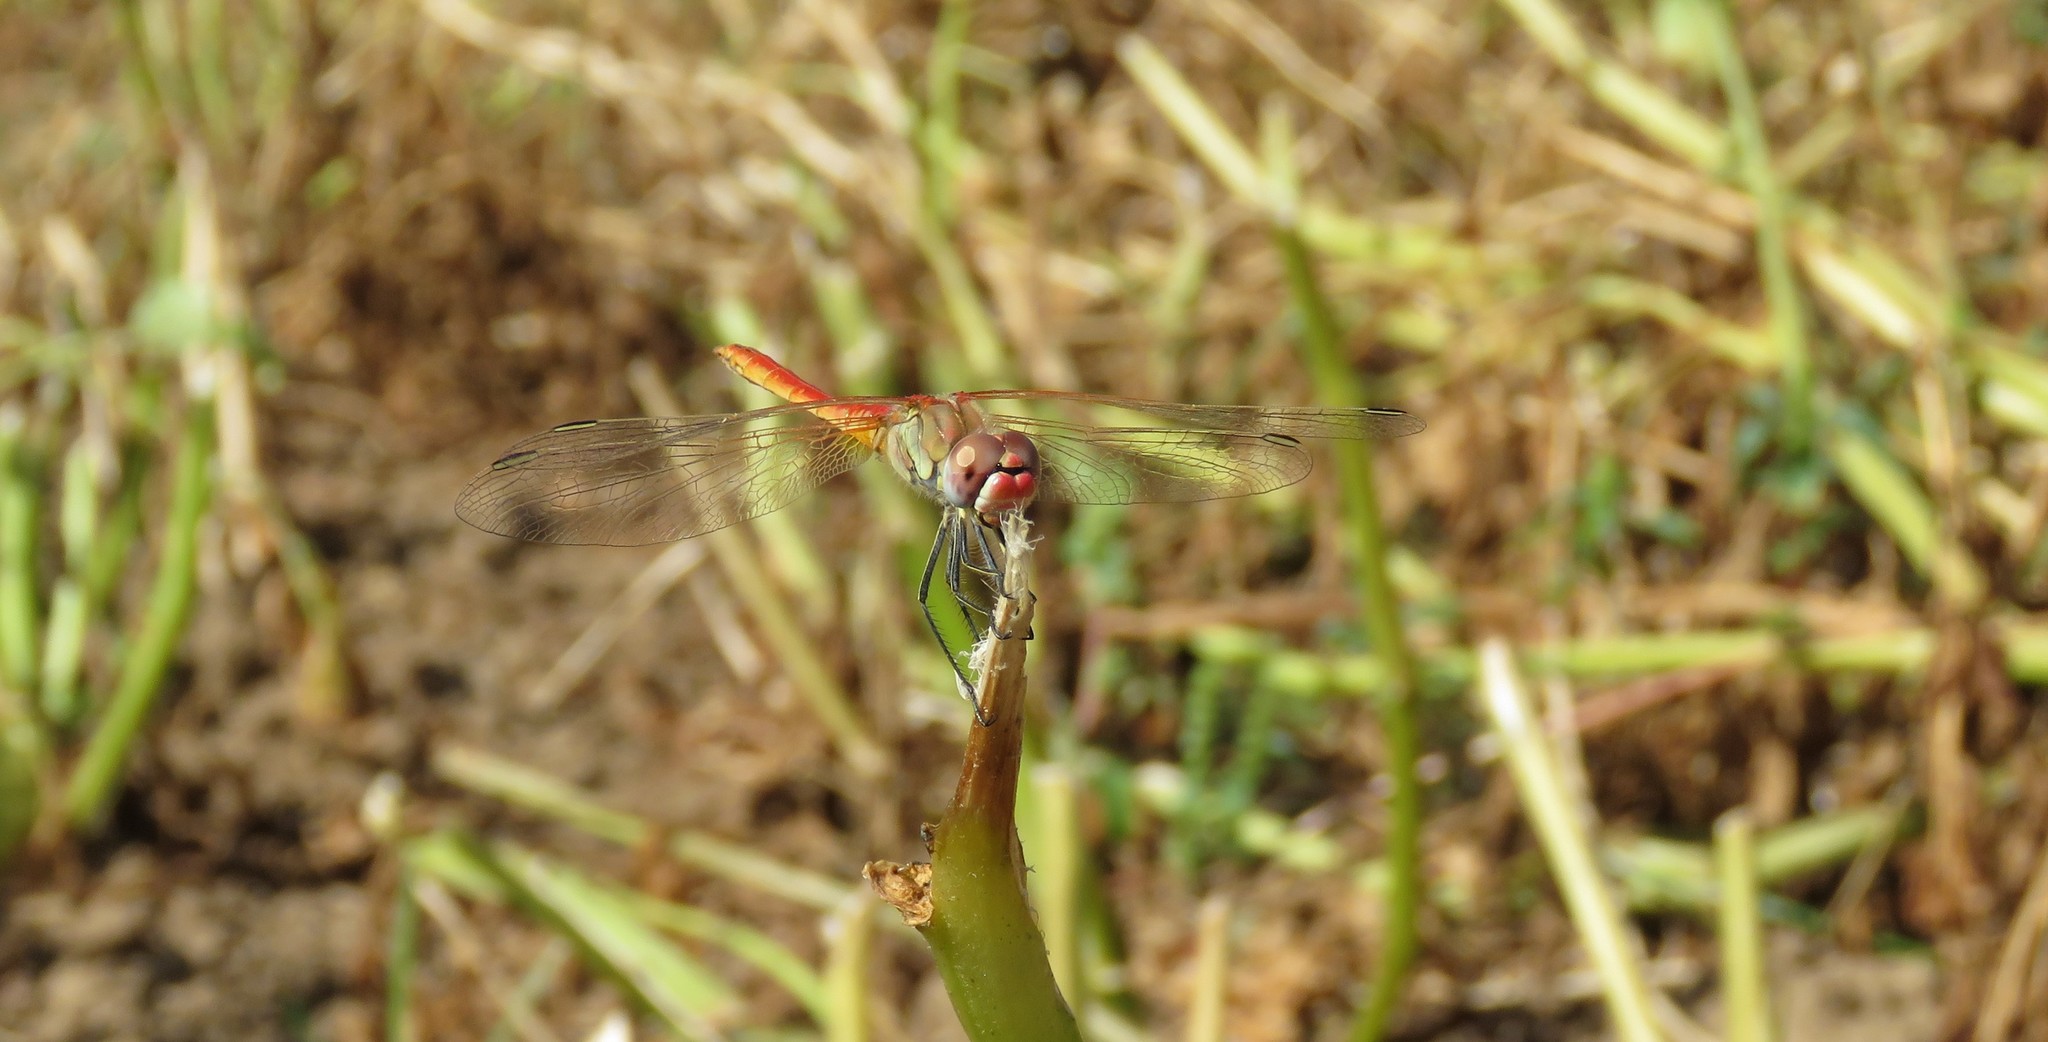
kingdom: Animalia
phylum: Arthropoda
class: Insecta
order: Odonata
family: Libellulidae
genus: Sympetrum
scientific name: Sympetrum fonscolombii
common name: Red-veined darter
